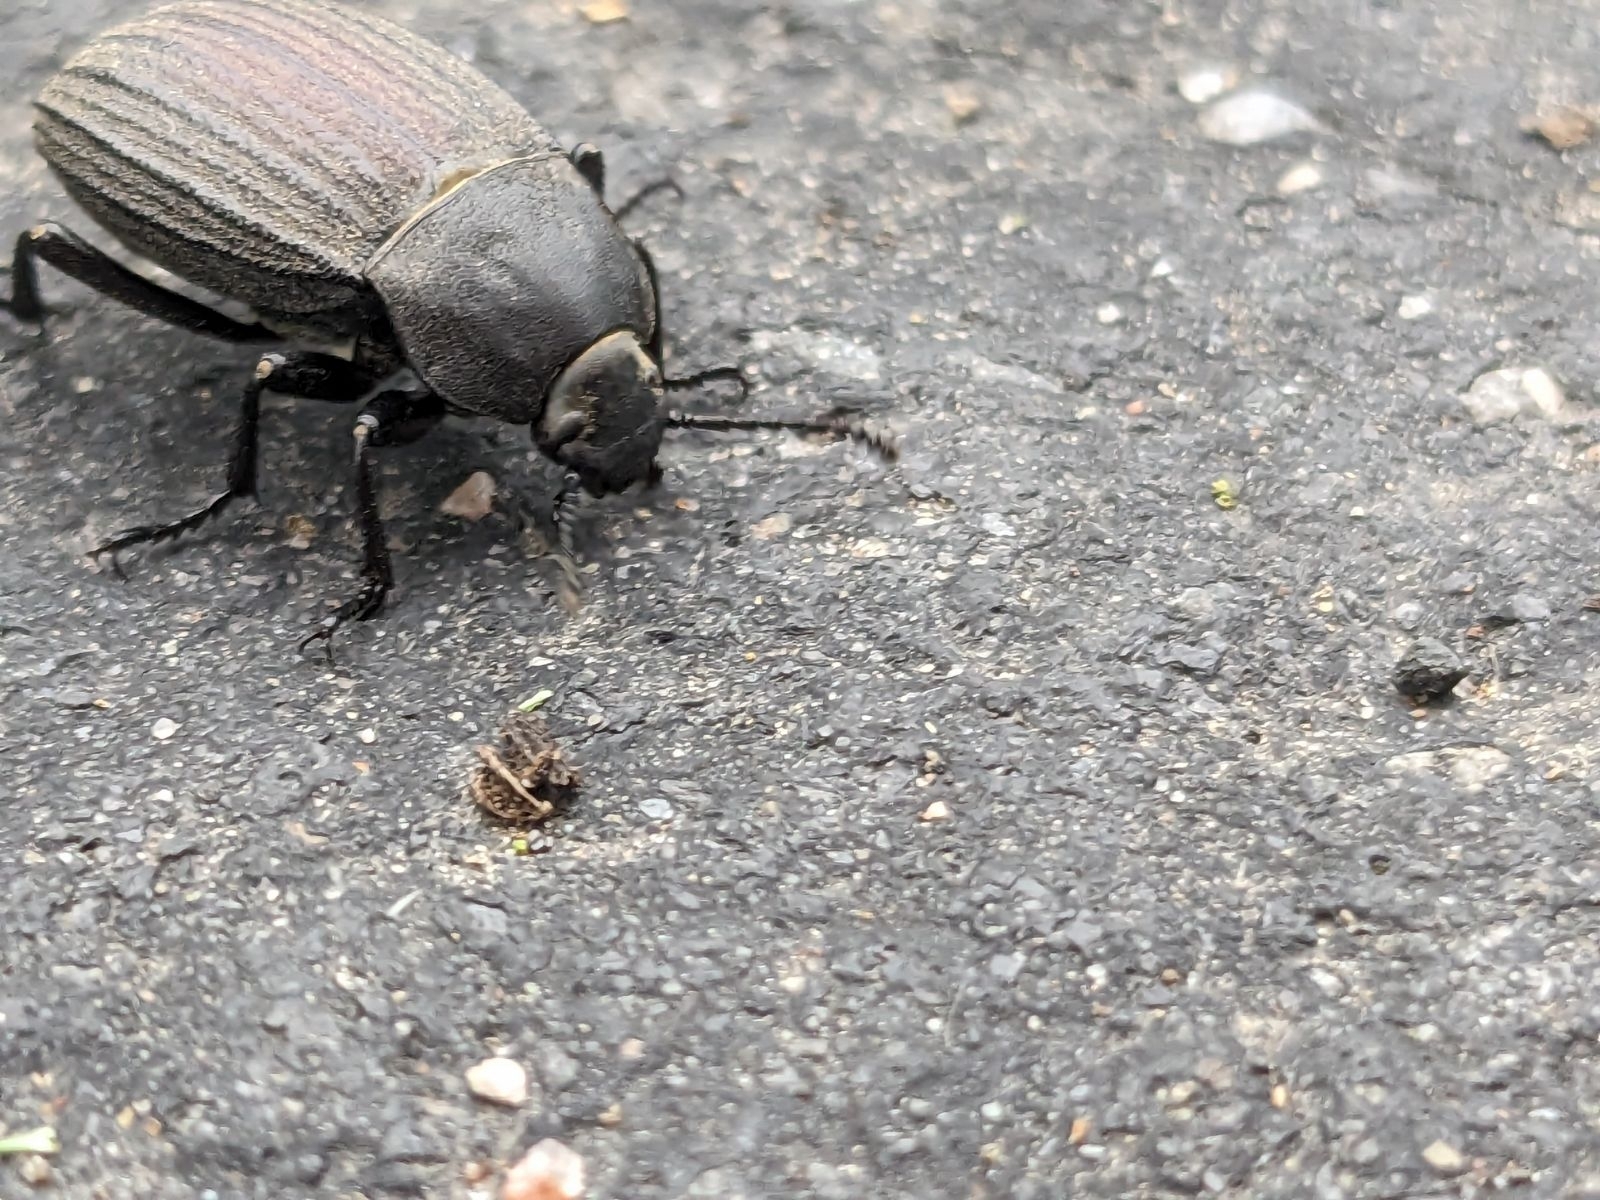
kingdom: Animalia
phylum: Arthropoda
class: Insecta
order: Coleoptera
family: Tenebrionidae
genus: Eleodes
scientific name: Eleodes tricostata
